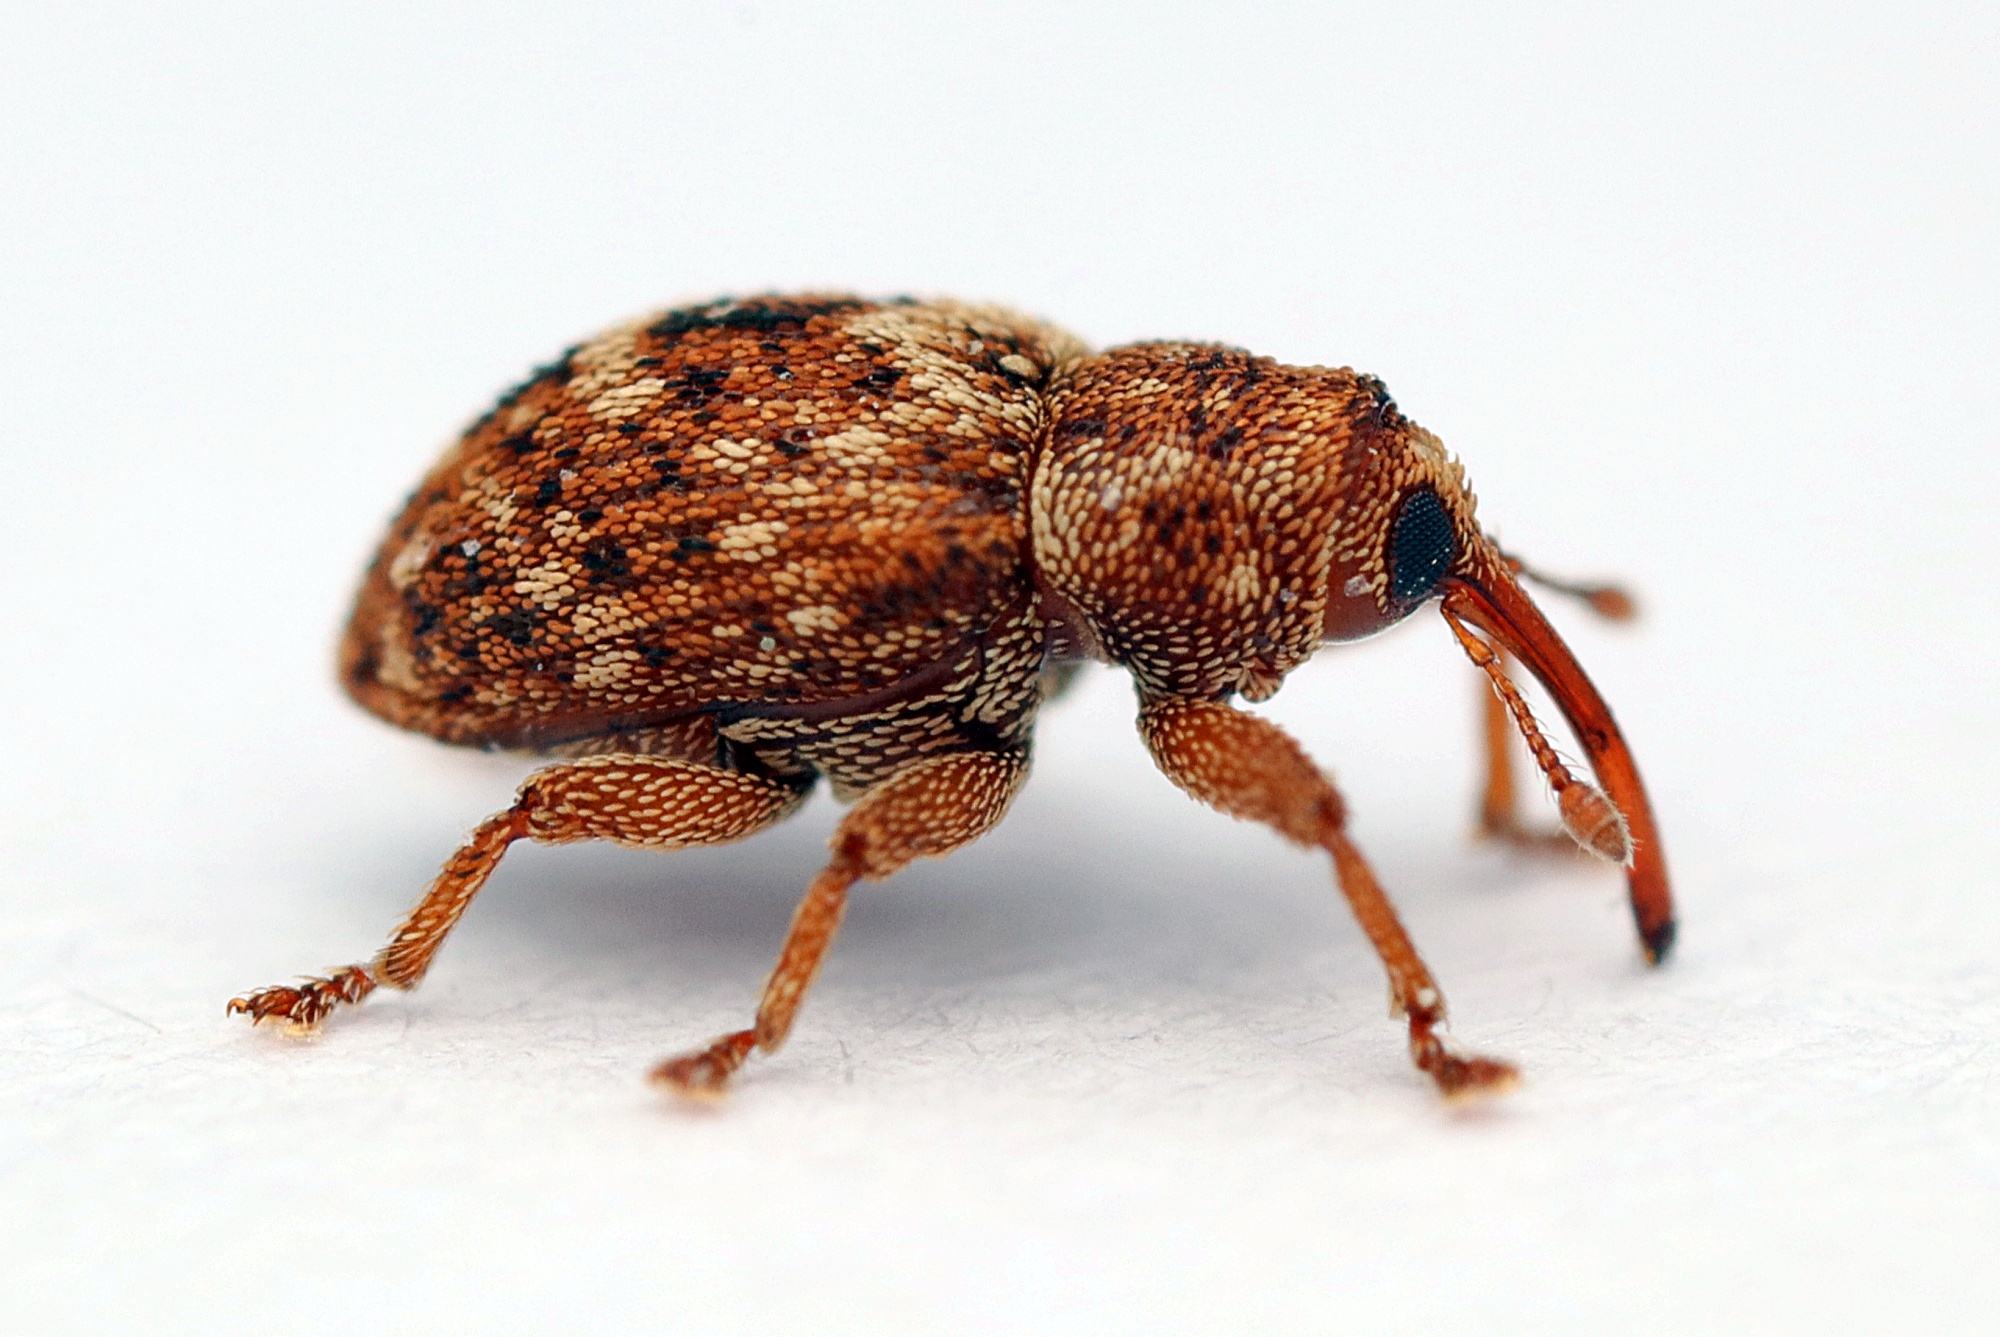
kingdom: Animalia
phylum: Arthropoda
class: Insecta
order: Coleoptera
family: Curculionidae
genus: Storeus
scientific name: Storeus albosignatus
